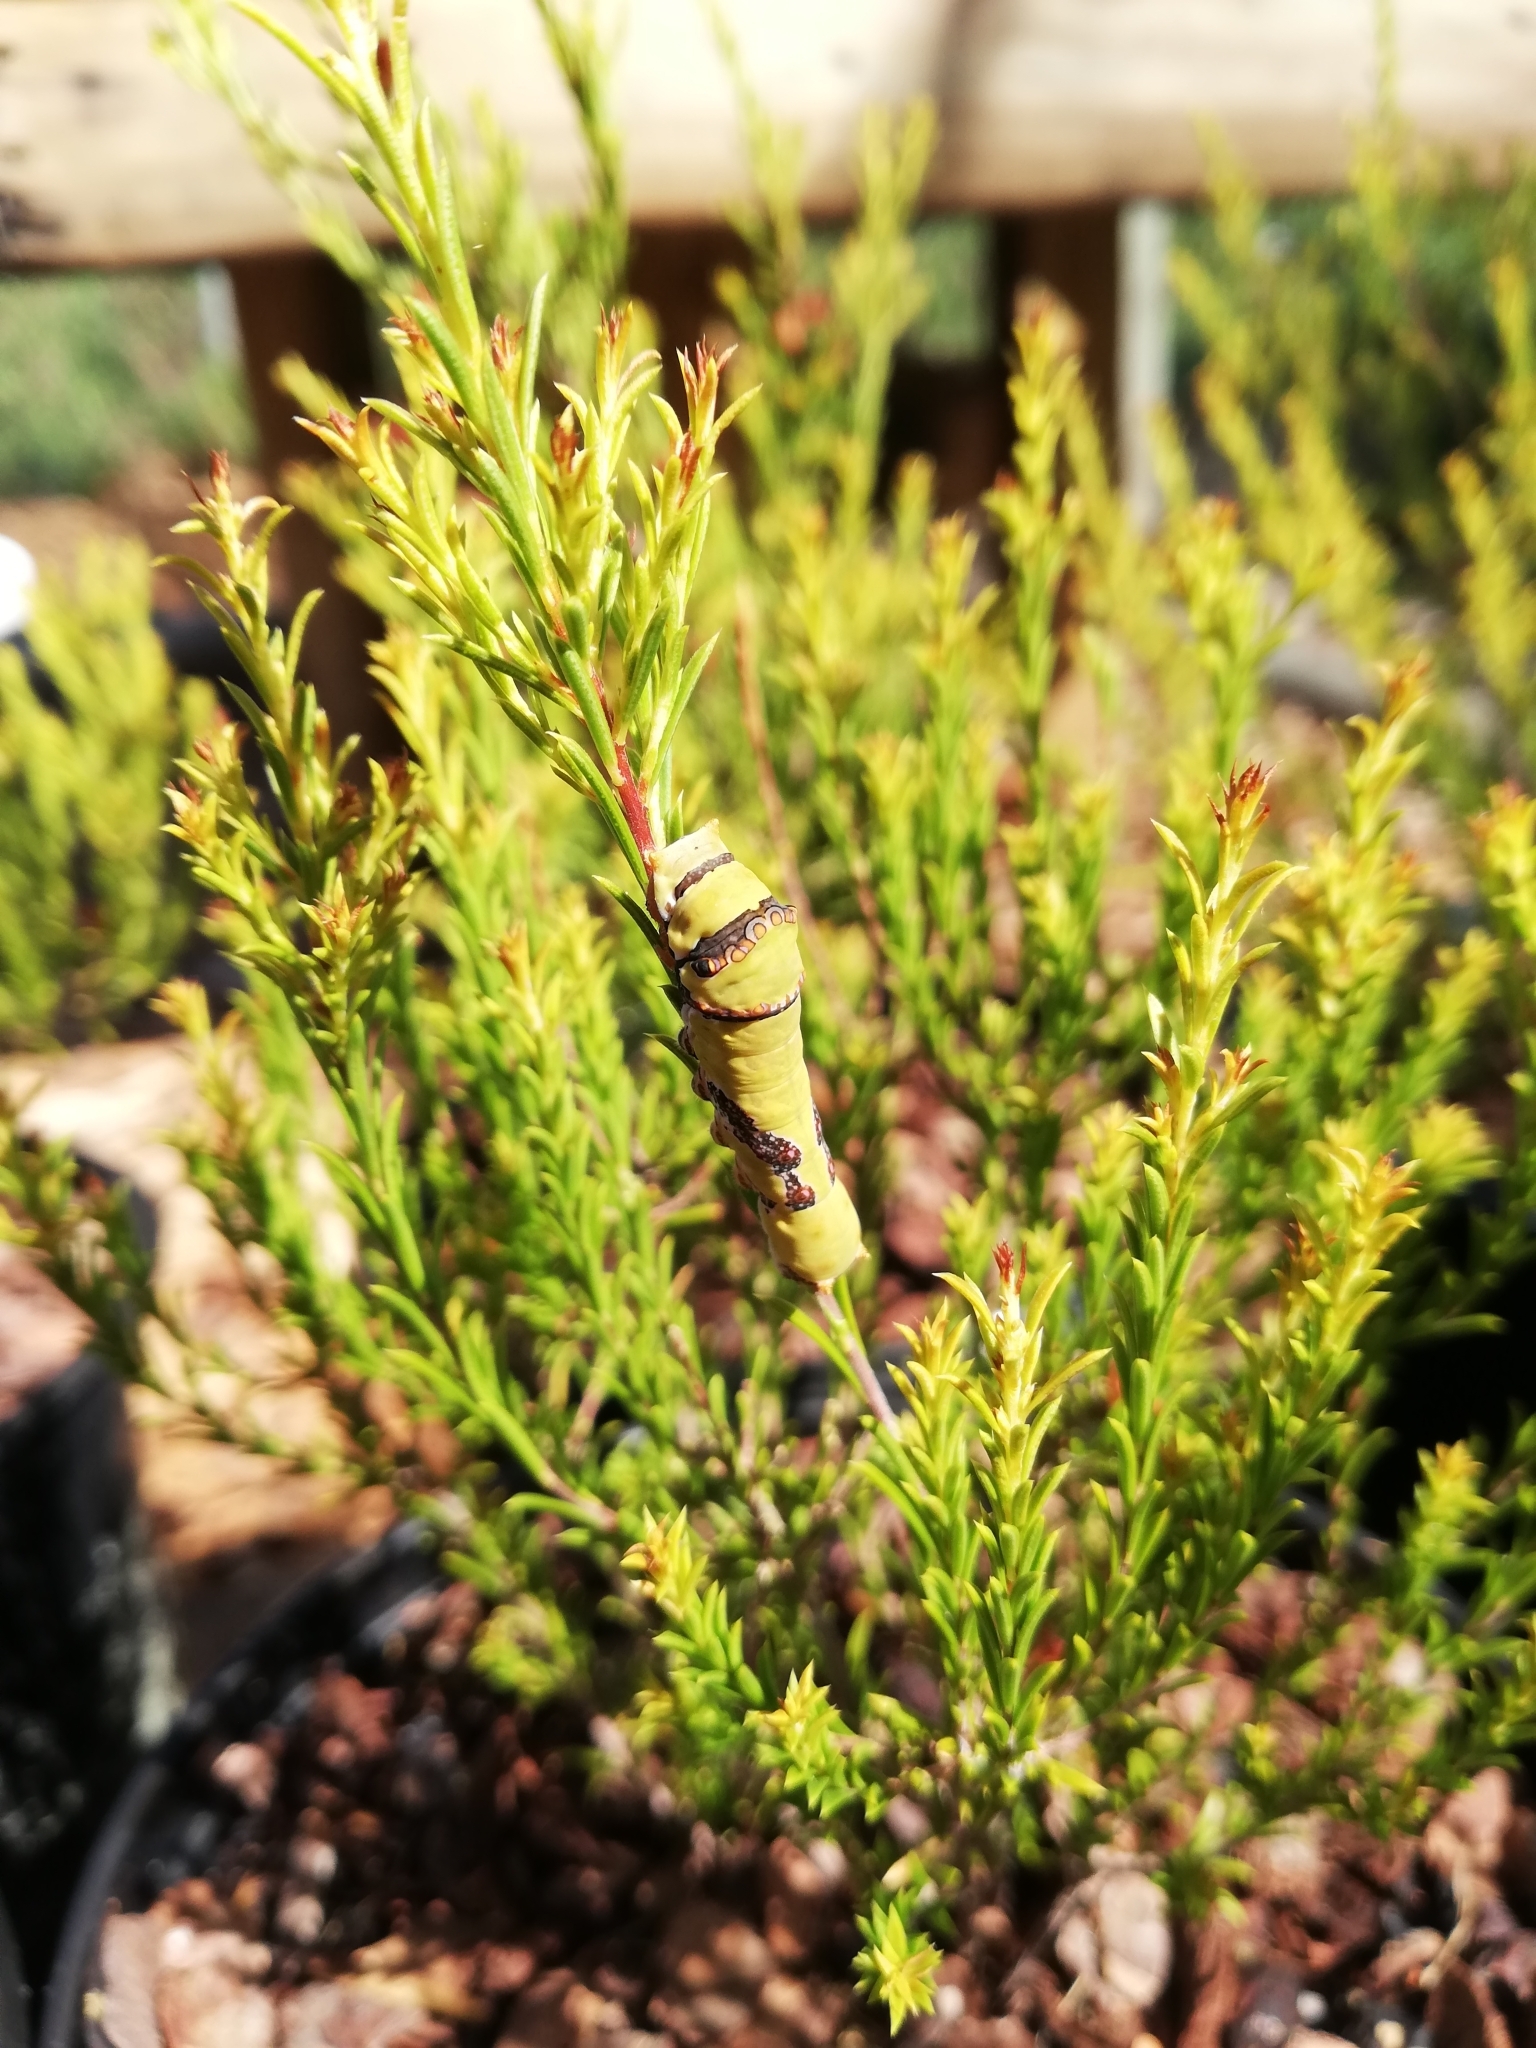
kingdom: Animalia
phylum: Arthropoda
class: Insecta
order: Lepidoptera
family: Papilionidae
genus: Papilio
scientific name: Papilio demodocus
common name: Christmas butterfly
